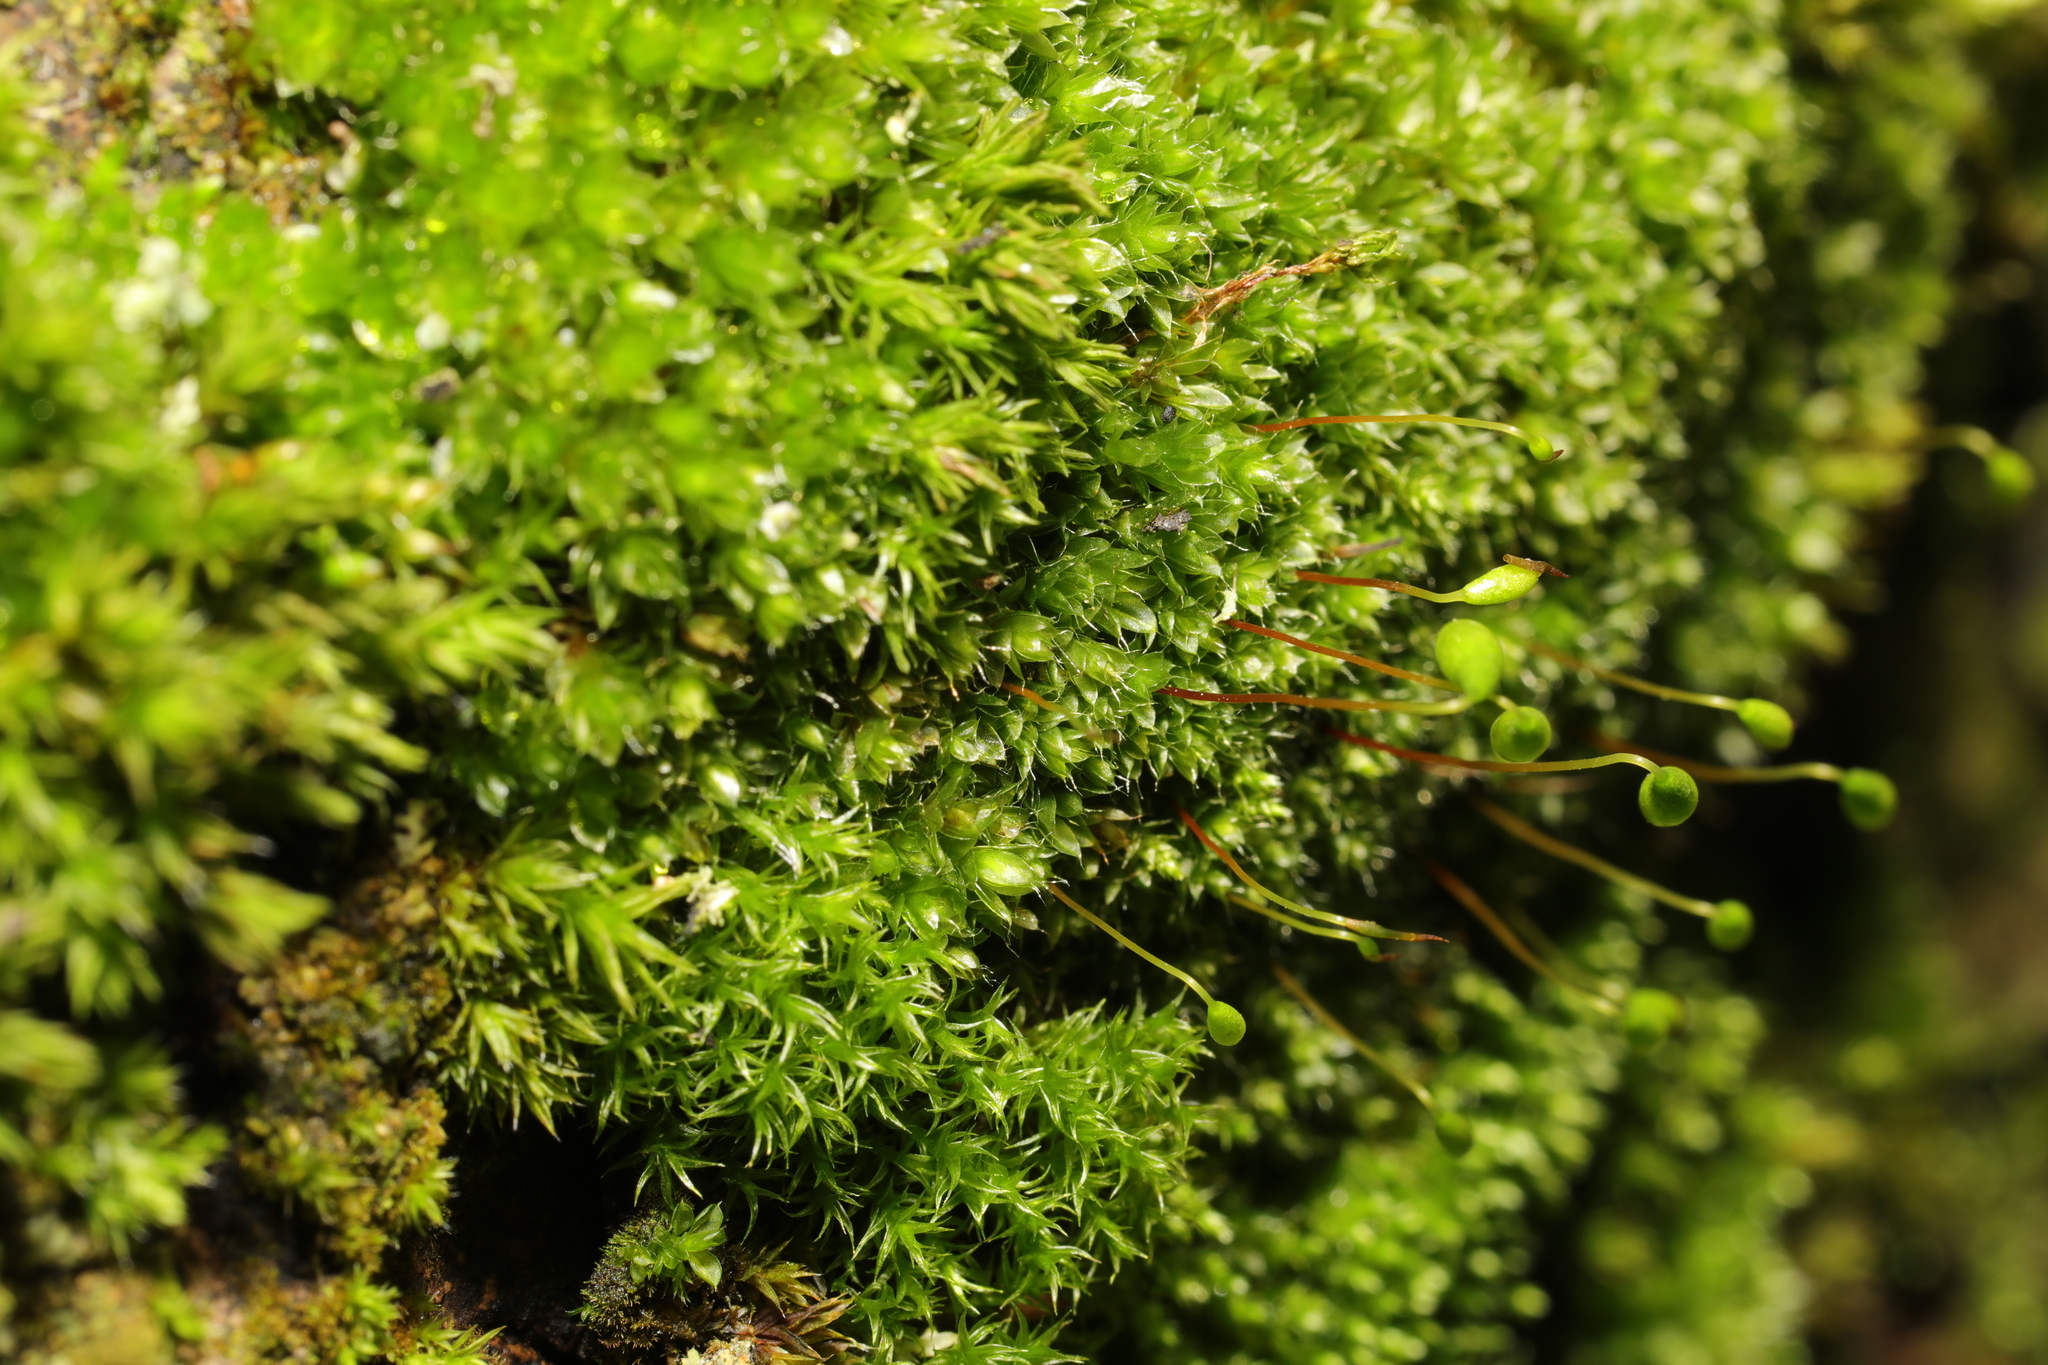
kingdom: Plantae
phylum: Bryophyta
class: Bryopsida
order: Bryales
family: Bryaceae
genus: Rosulabryum
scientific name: Rosulabryum capillare
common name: Capillary thread-moss
